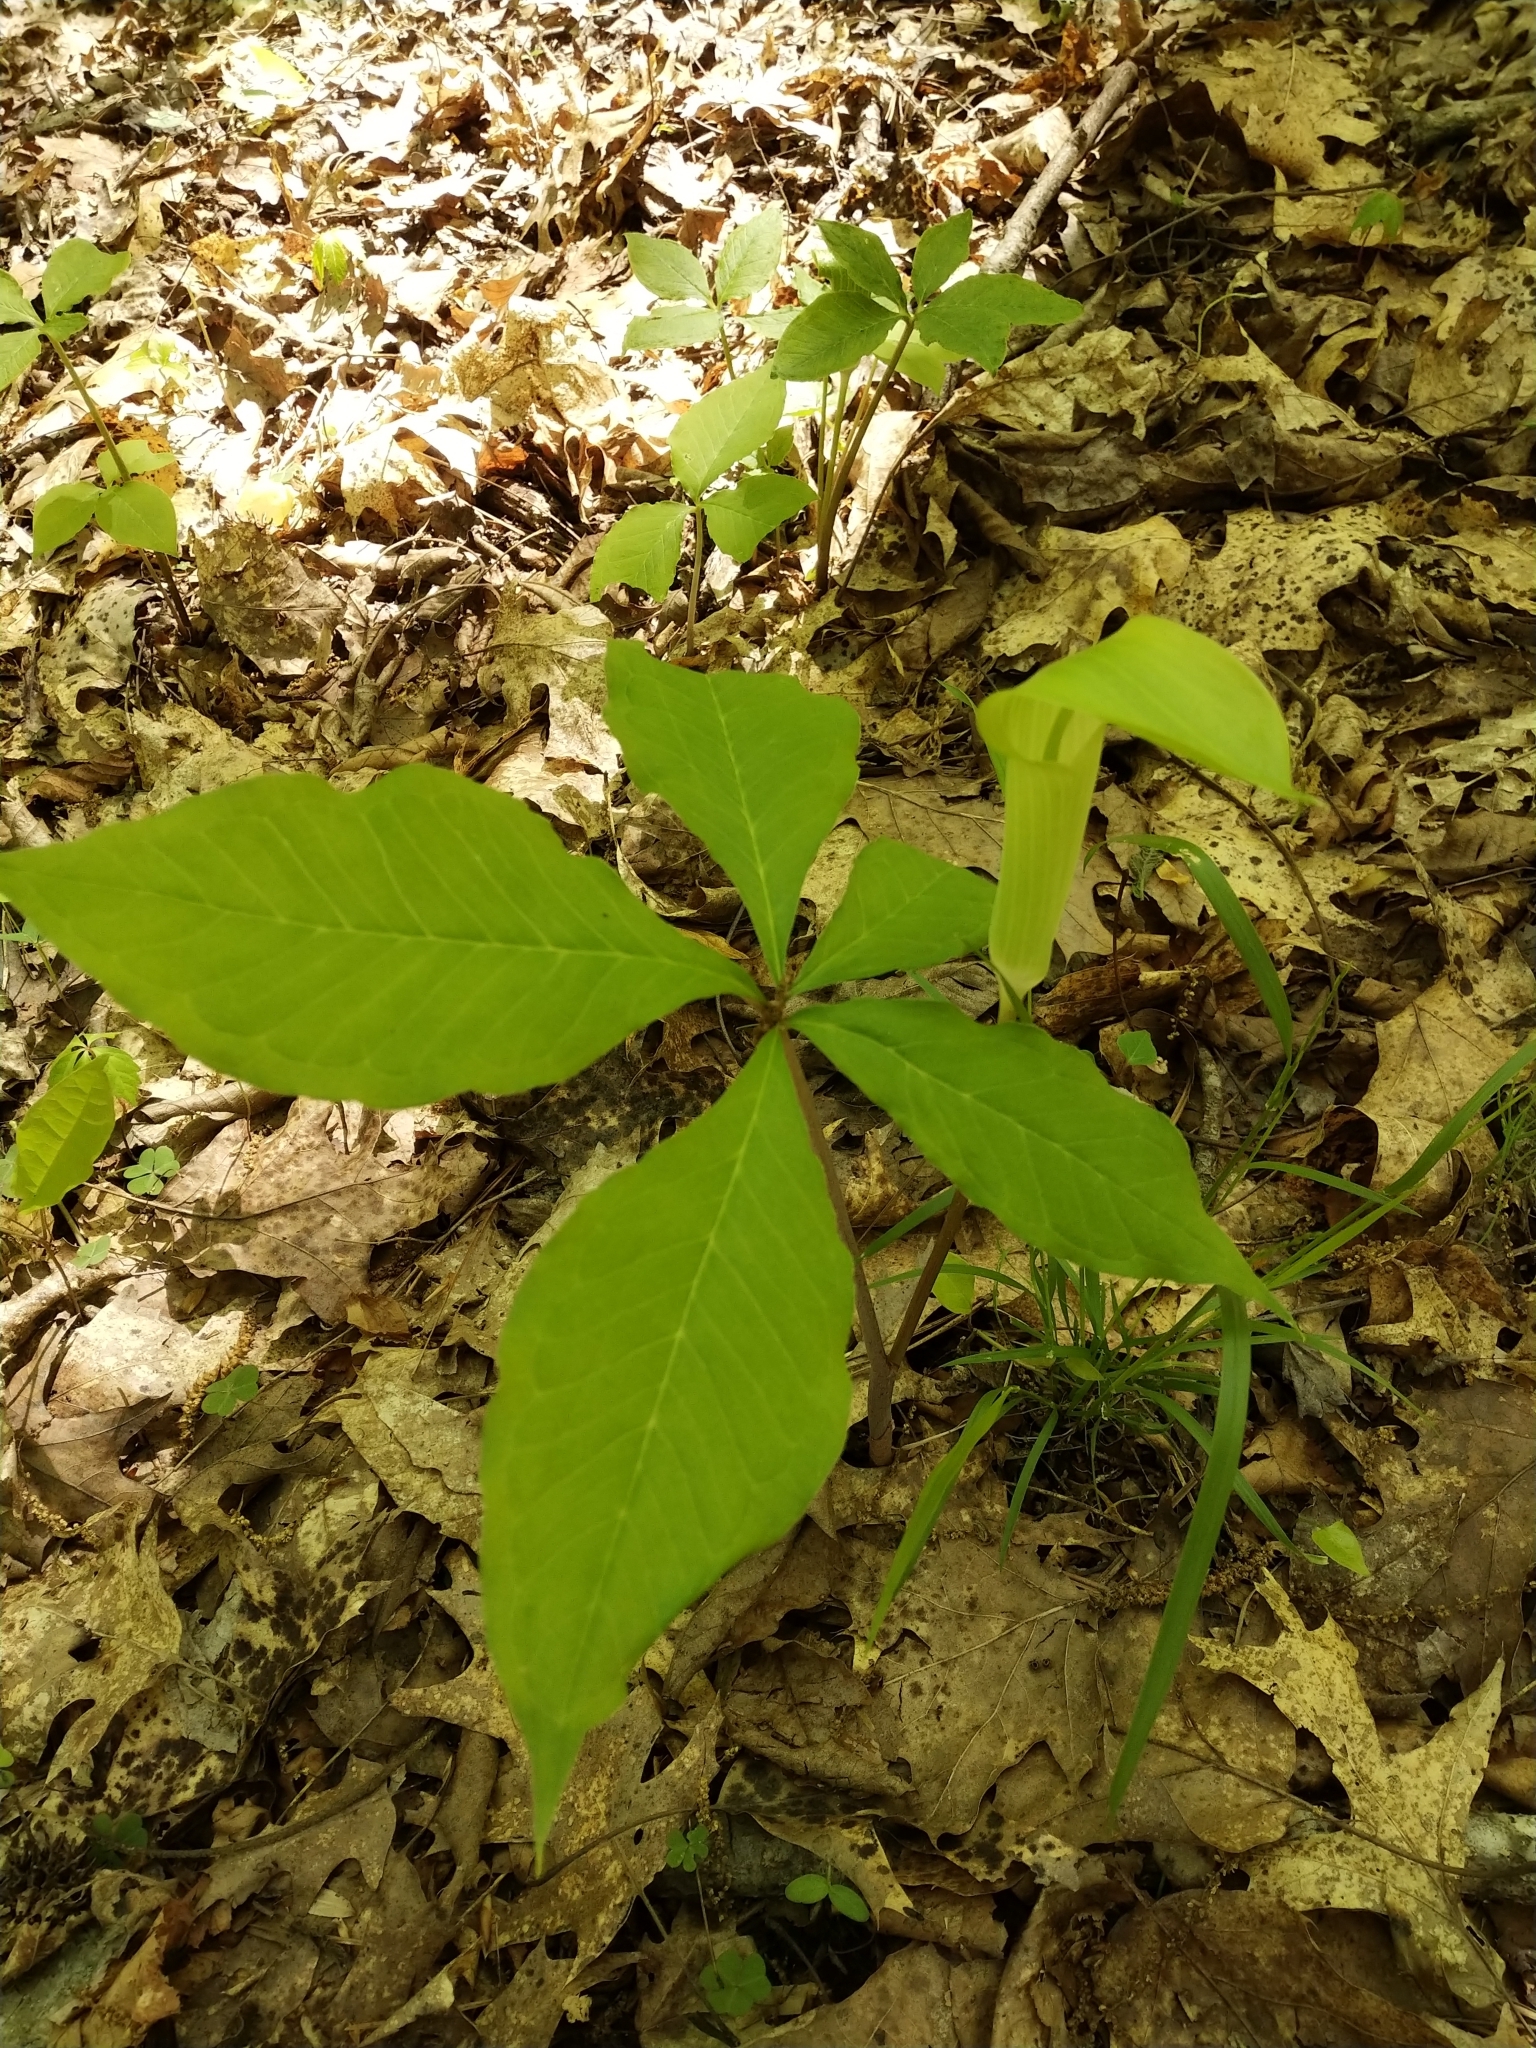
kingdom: Plantae
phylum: Tracheophyta
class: Liliopsida
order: Alismatales
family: Araceae
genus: Arisaema
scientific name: Arisaema quinatum
